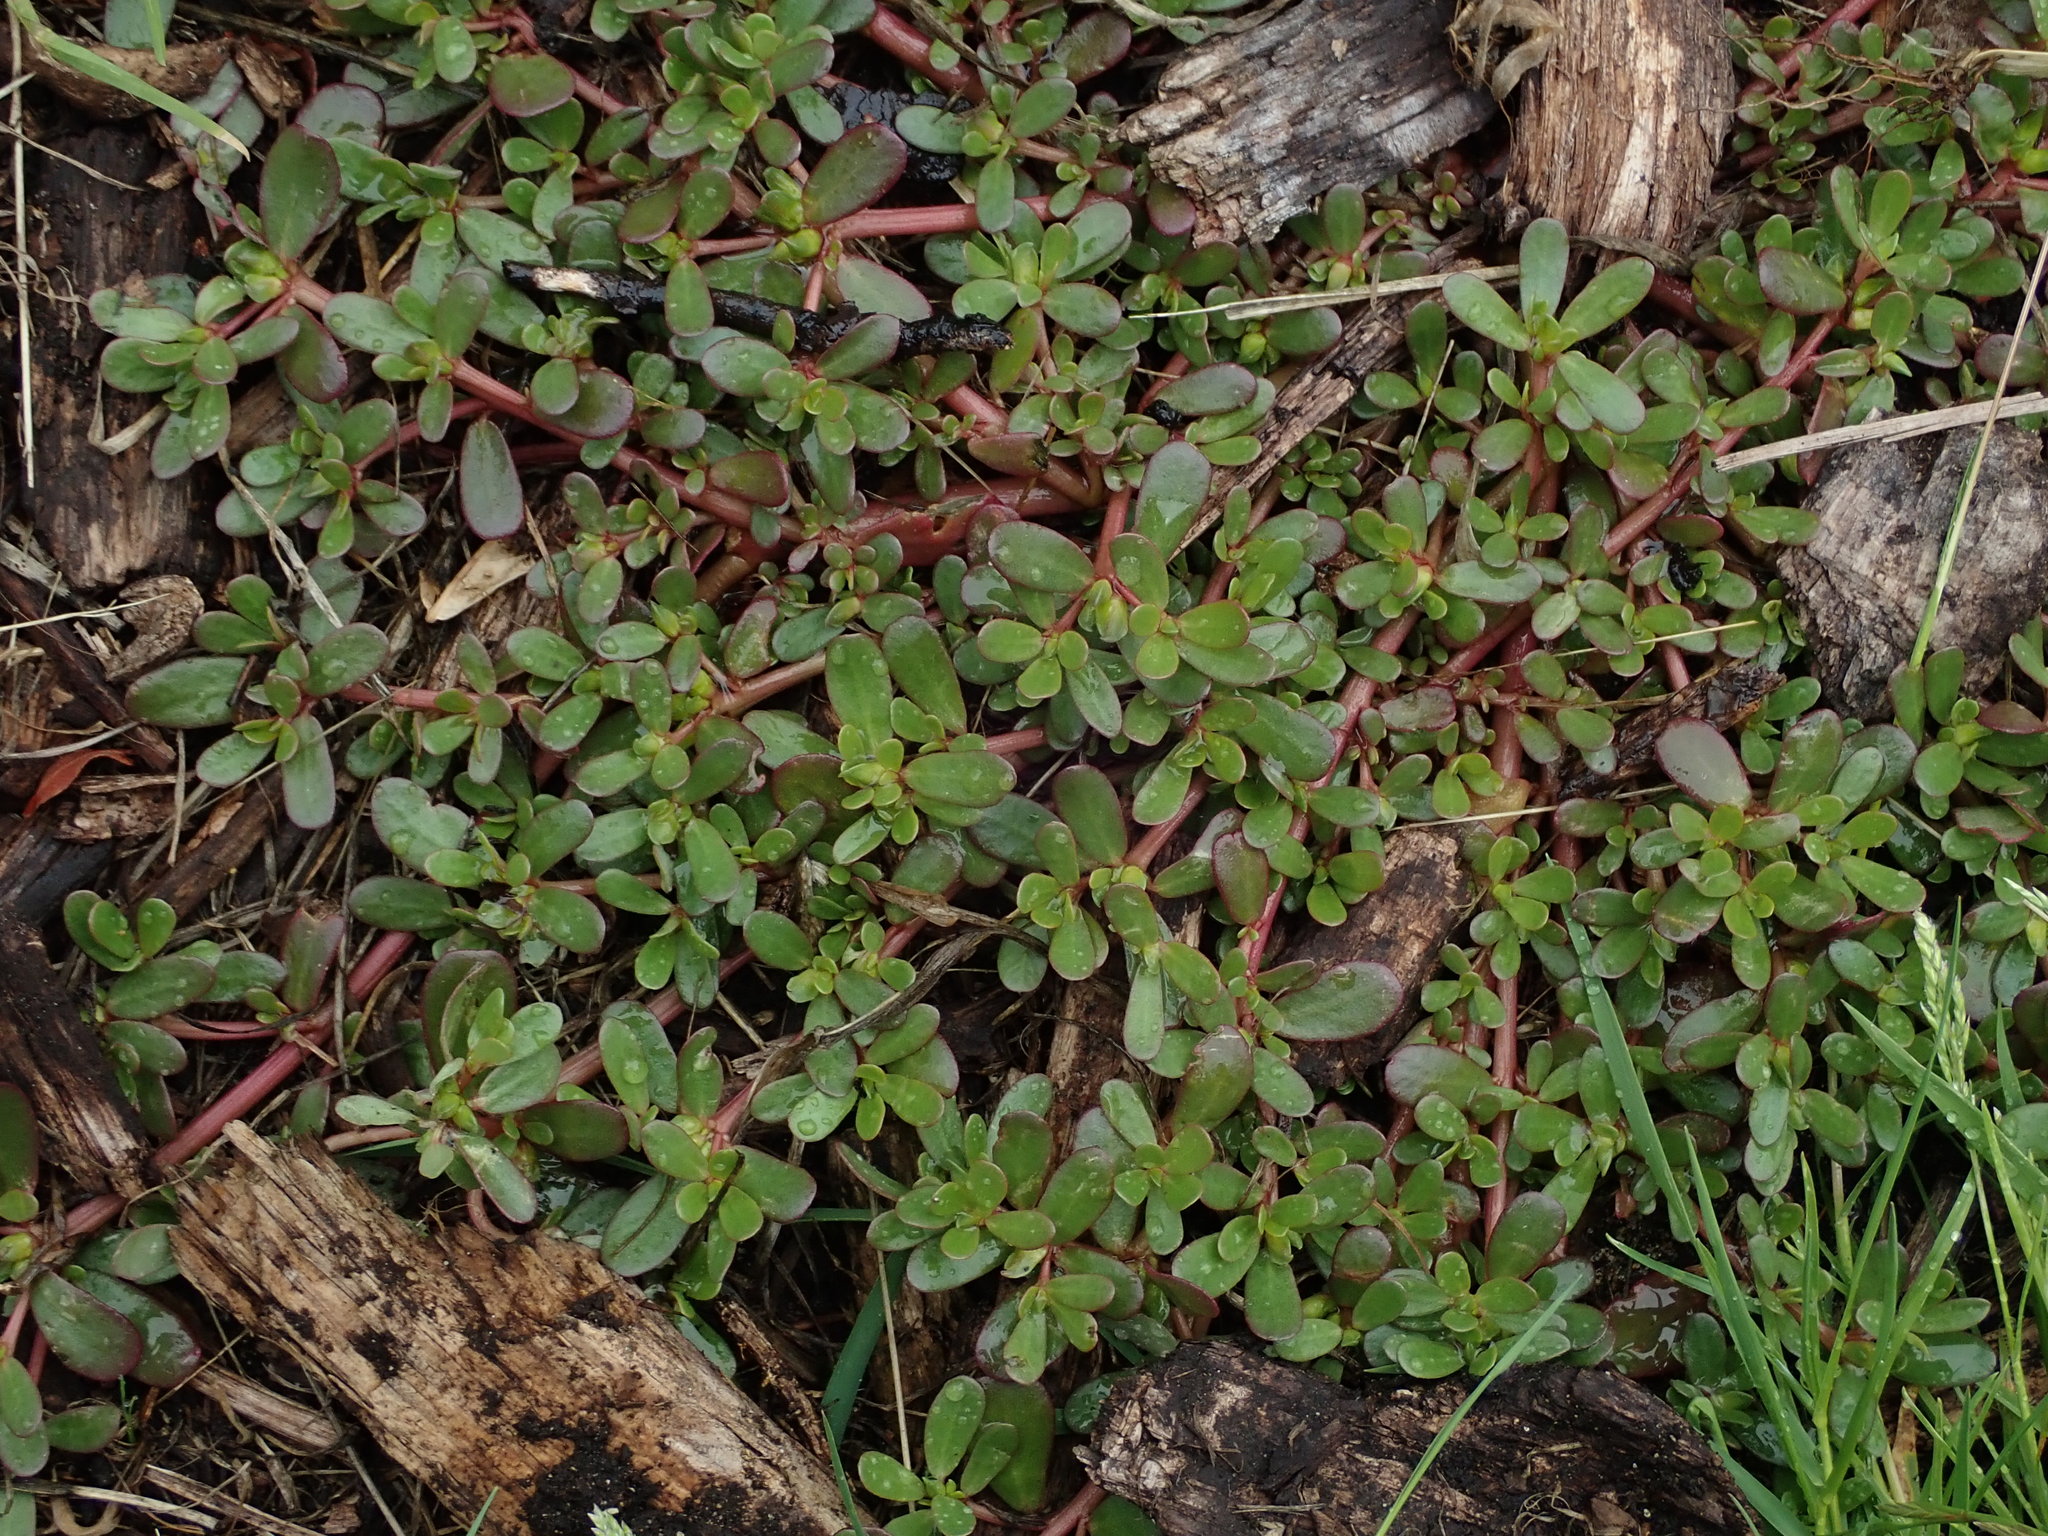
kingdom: Plantae
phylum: Tracheophyta
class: Magnoliopsida
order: Caryophyllales
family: Portulacaceae
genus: Portulaca
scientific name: Portulaca oleracea
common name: Common purslane
